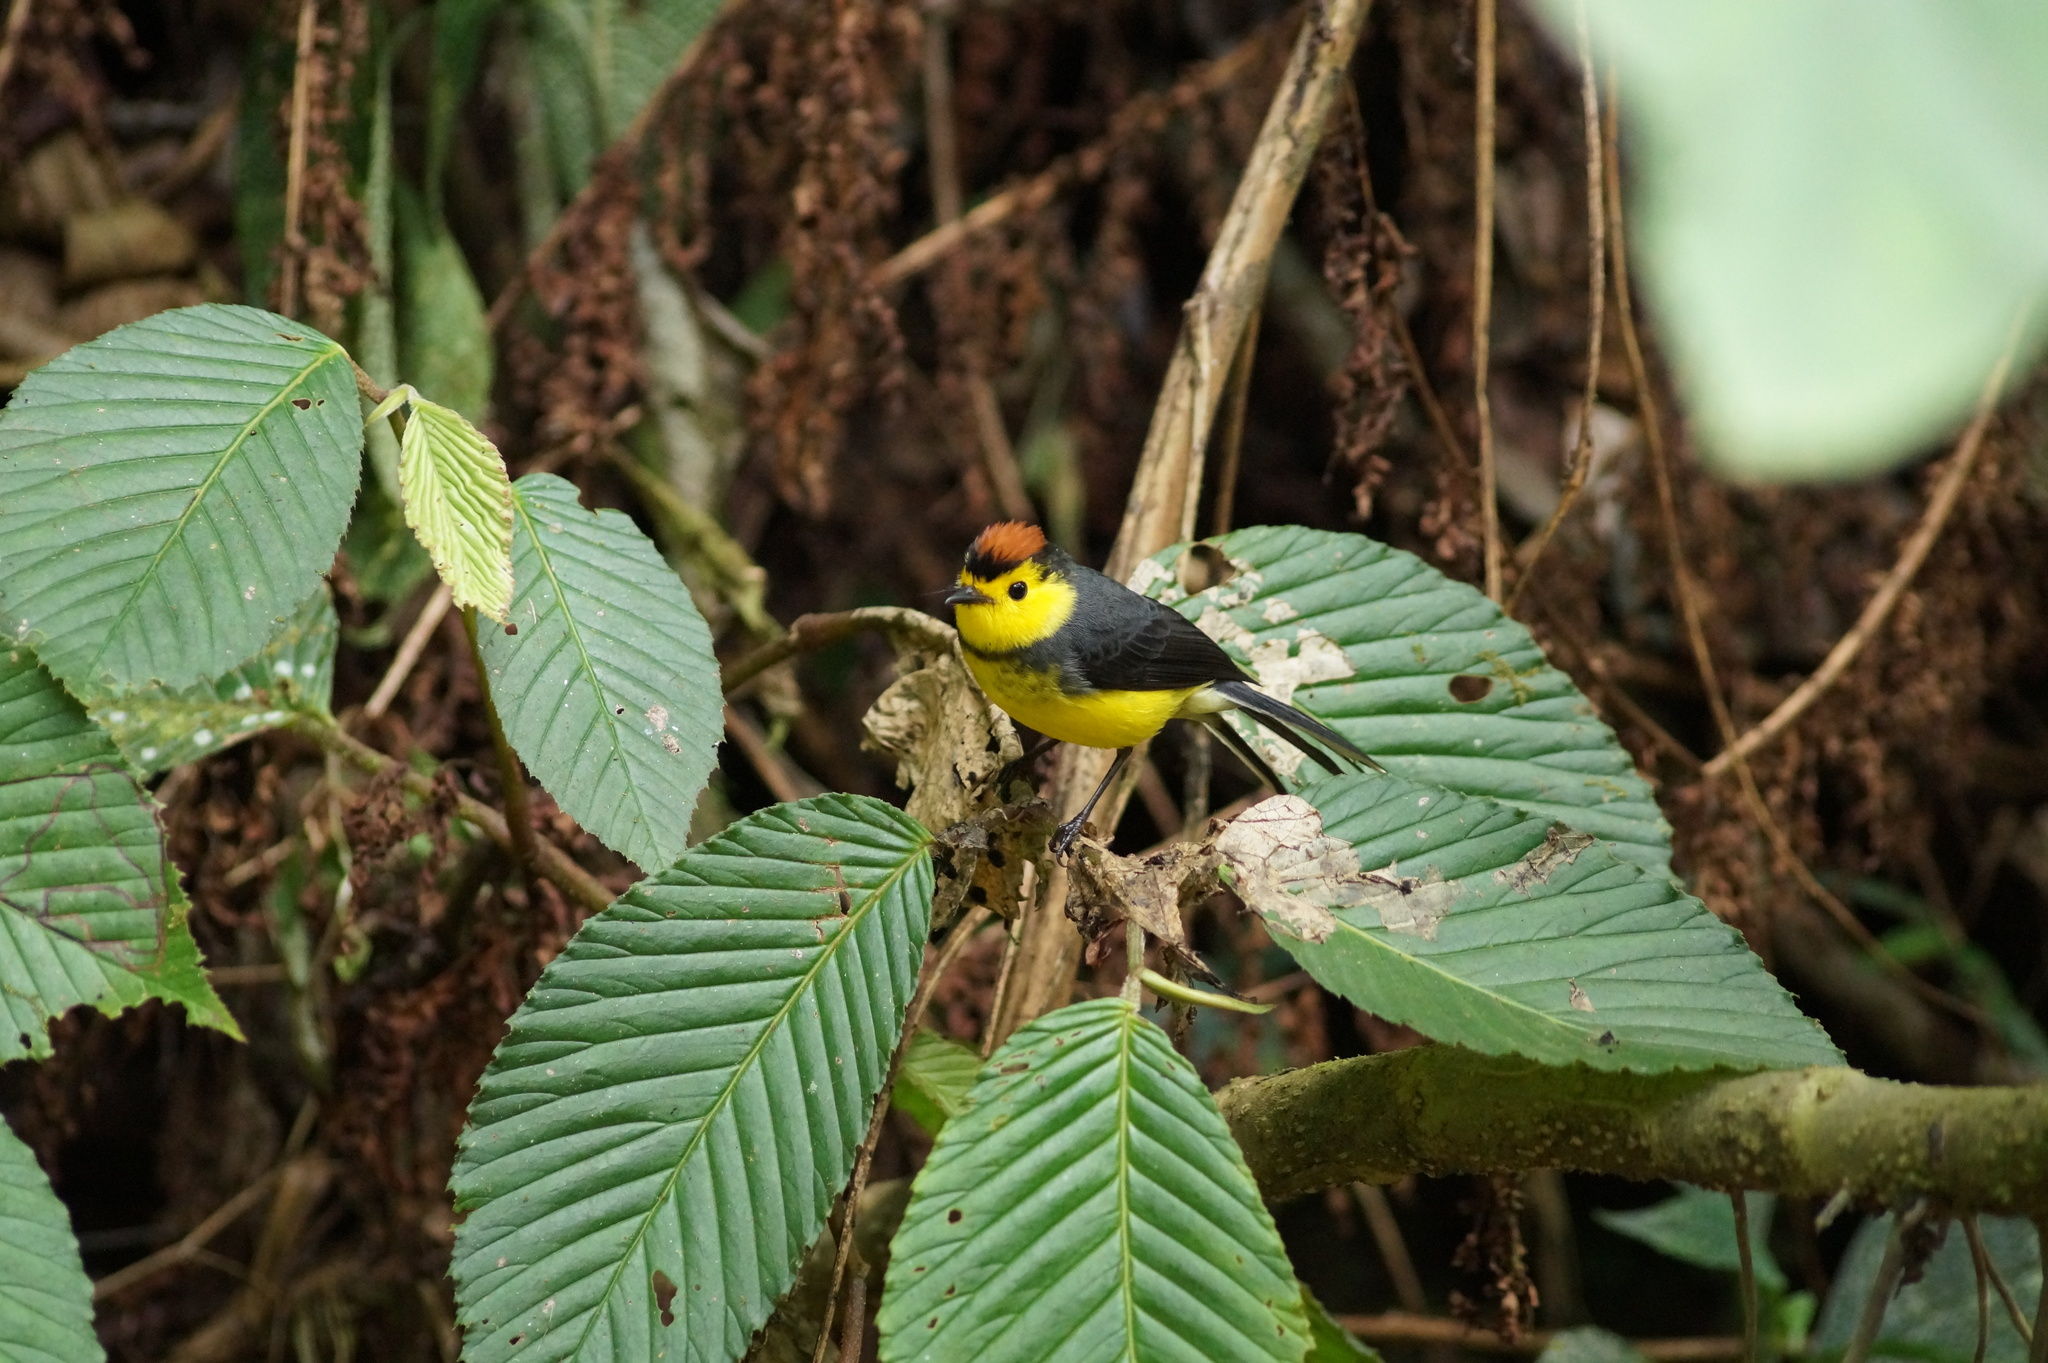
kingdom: Animalia
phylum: Chordata
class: Aves
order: Passeriformes
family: Parulidae
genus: Myioborus
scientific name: Myioborus torquatus
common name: Collared whitestart
